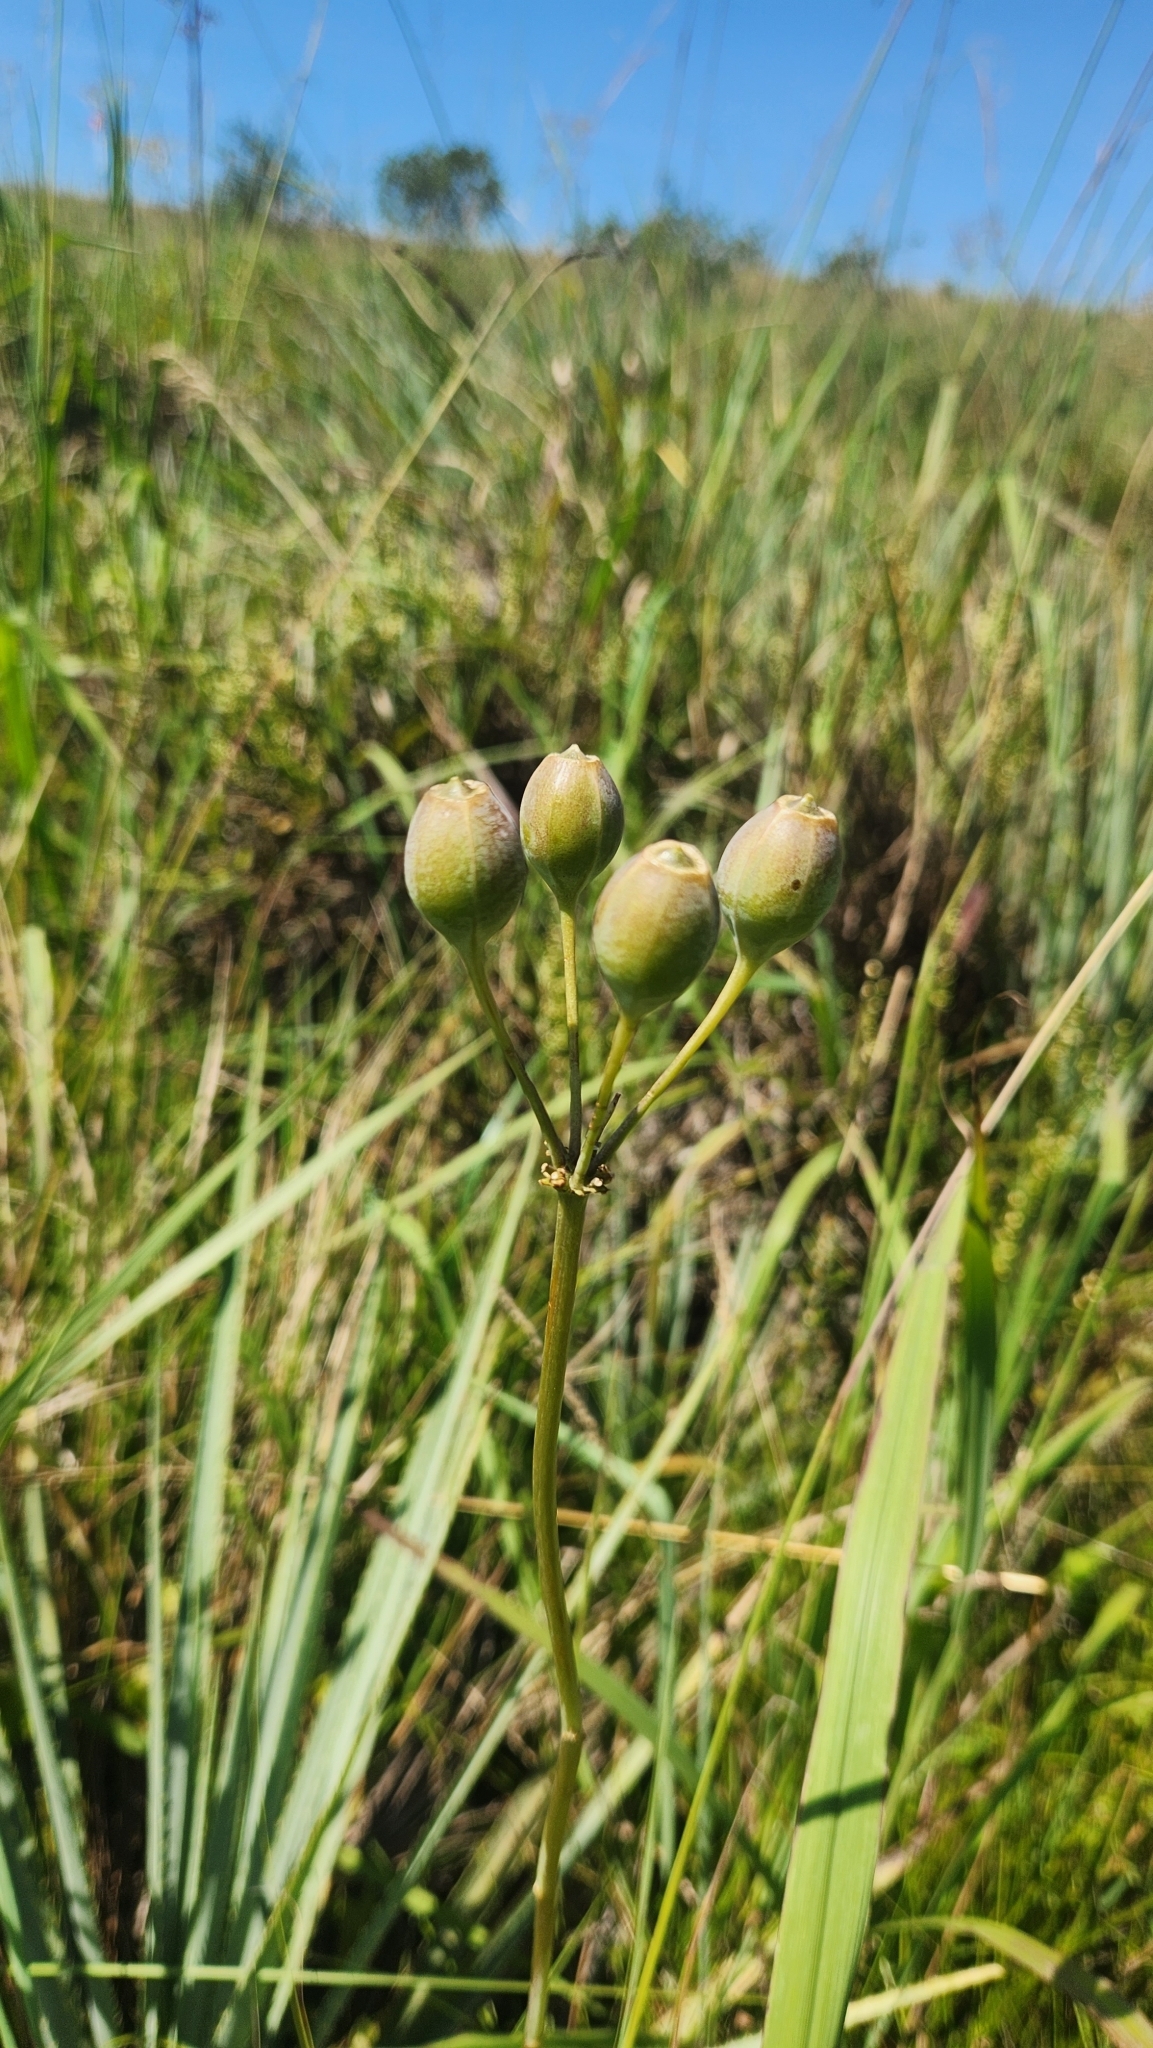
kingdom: Plantae
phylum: Tracheophyta
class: Liliopsida
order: Liliales
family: Alstroemeriaceae
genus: Alstroemeria
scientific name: Alstroemeria isabelleana
